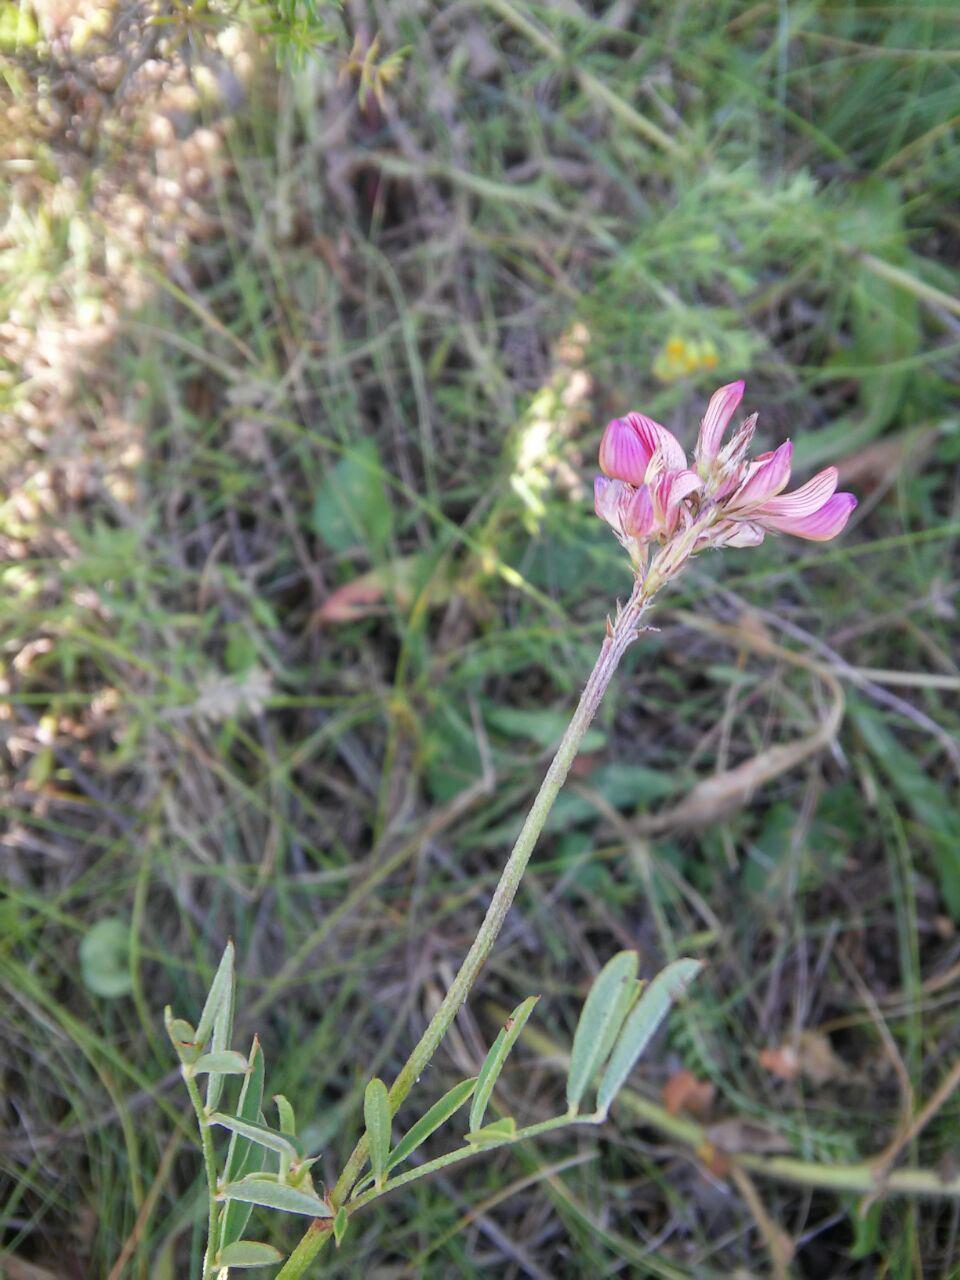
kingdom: Plantae
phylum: Tracheophyta
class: Magnoliopsida
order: Fabales
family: Fabaceae
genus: Onobrychis
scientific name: Onobrychis arenaria
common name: Sand esparcet
